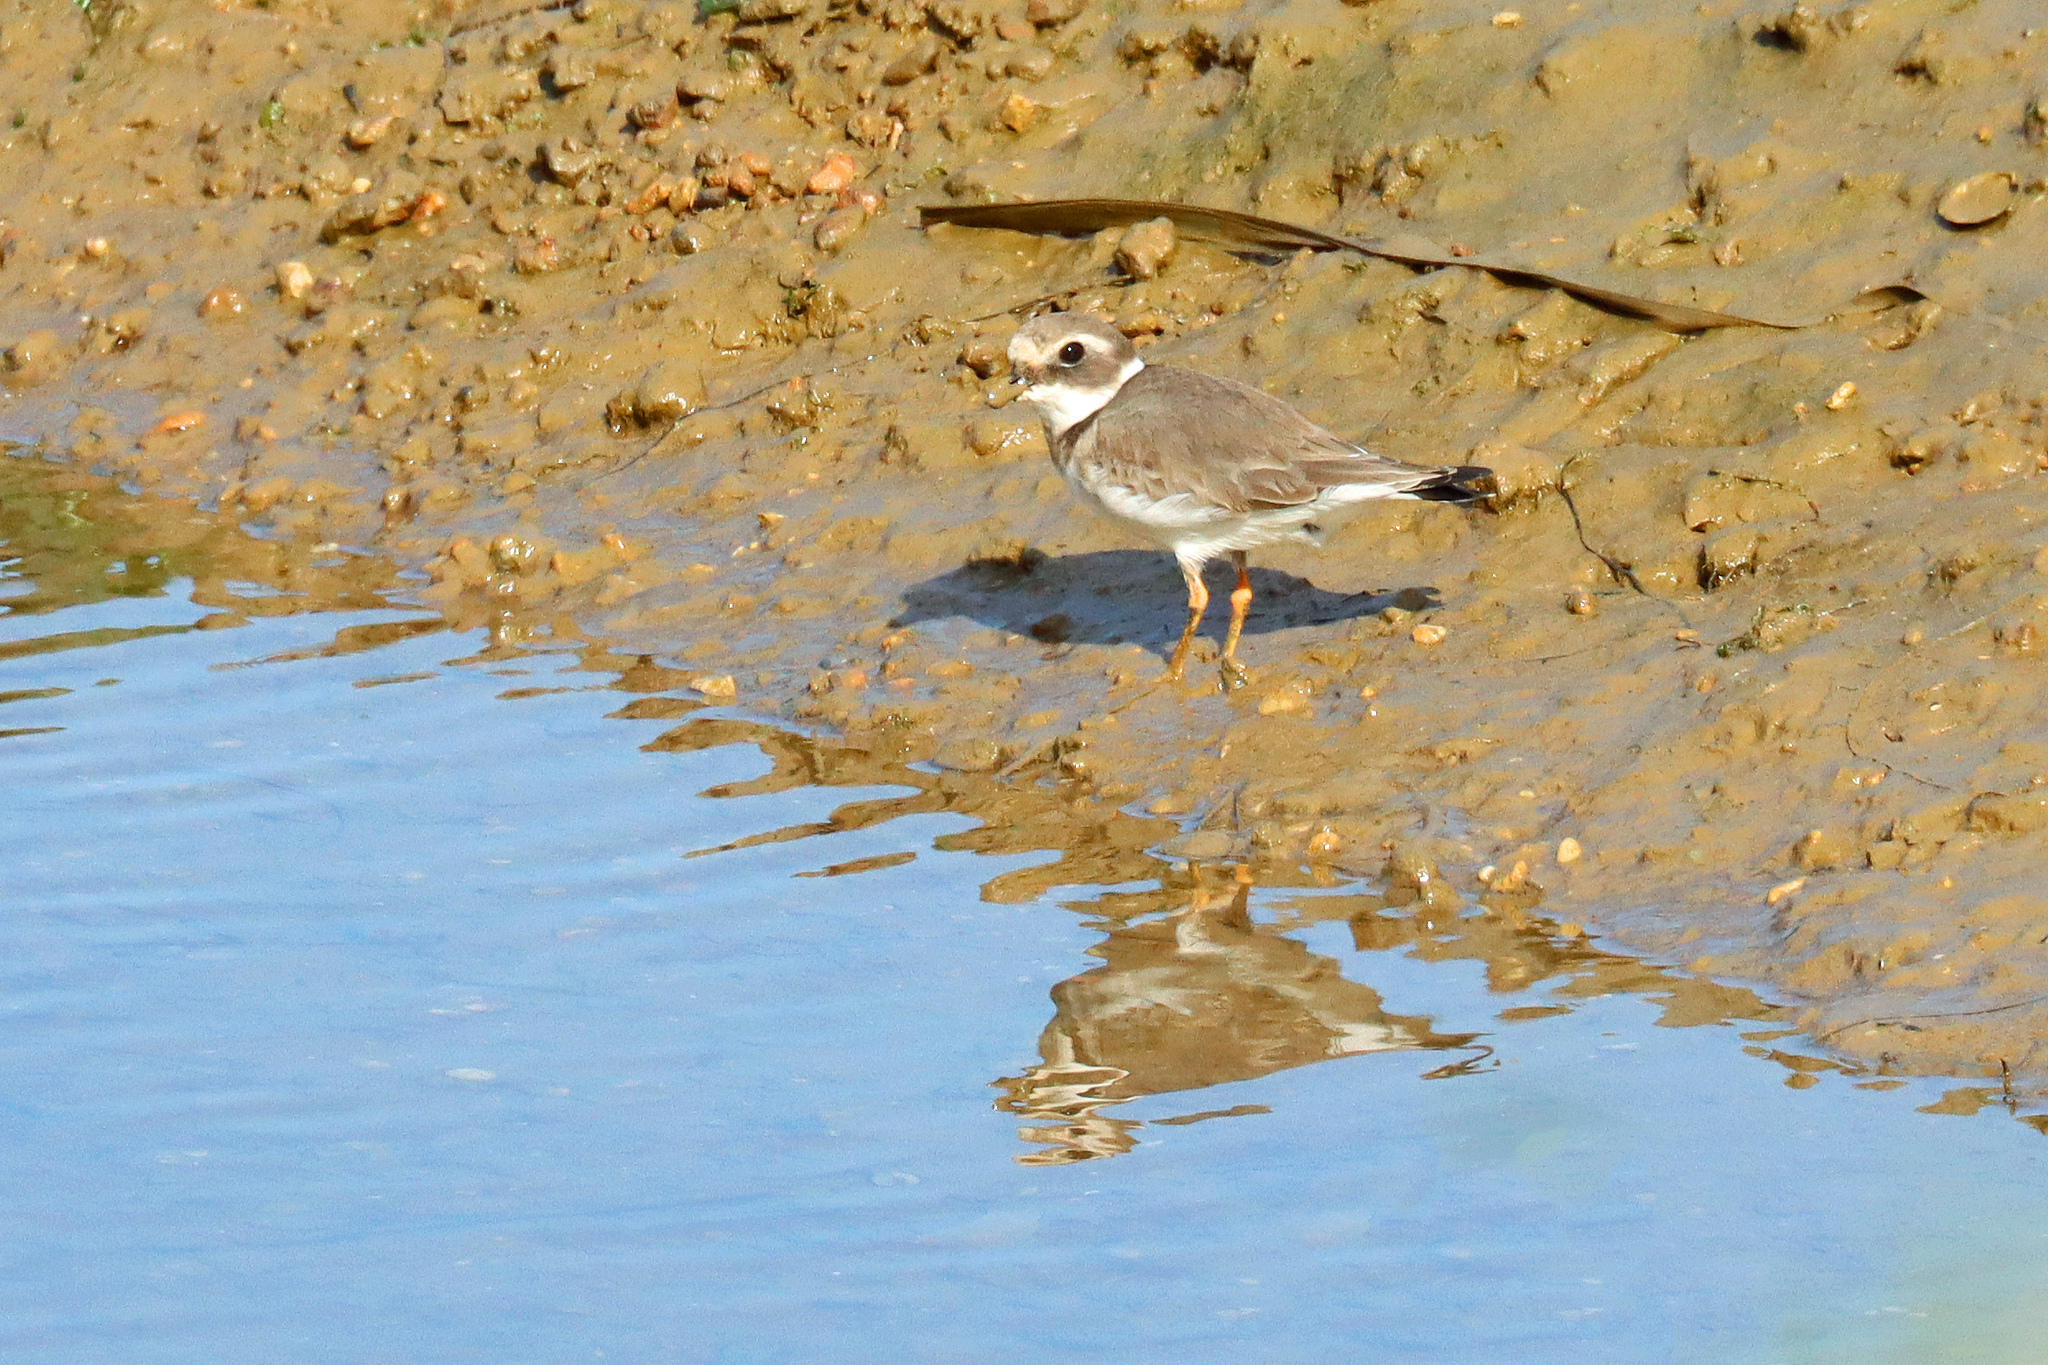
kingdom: Animalia
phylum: Chordata
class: Aves
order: Charadriiformes
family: Charadriidae
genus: Charadrius
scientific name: Charadrius hiaticula
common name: Common ringed plover
